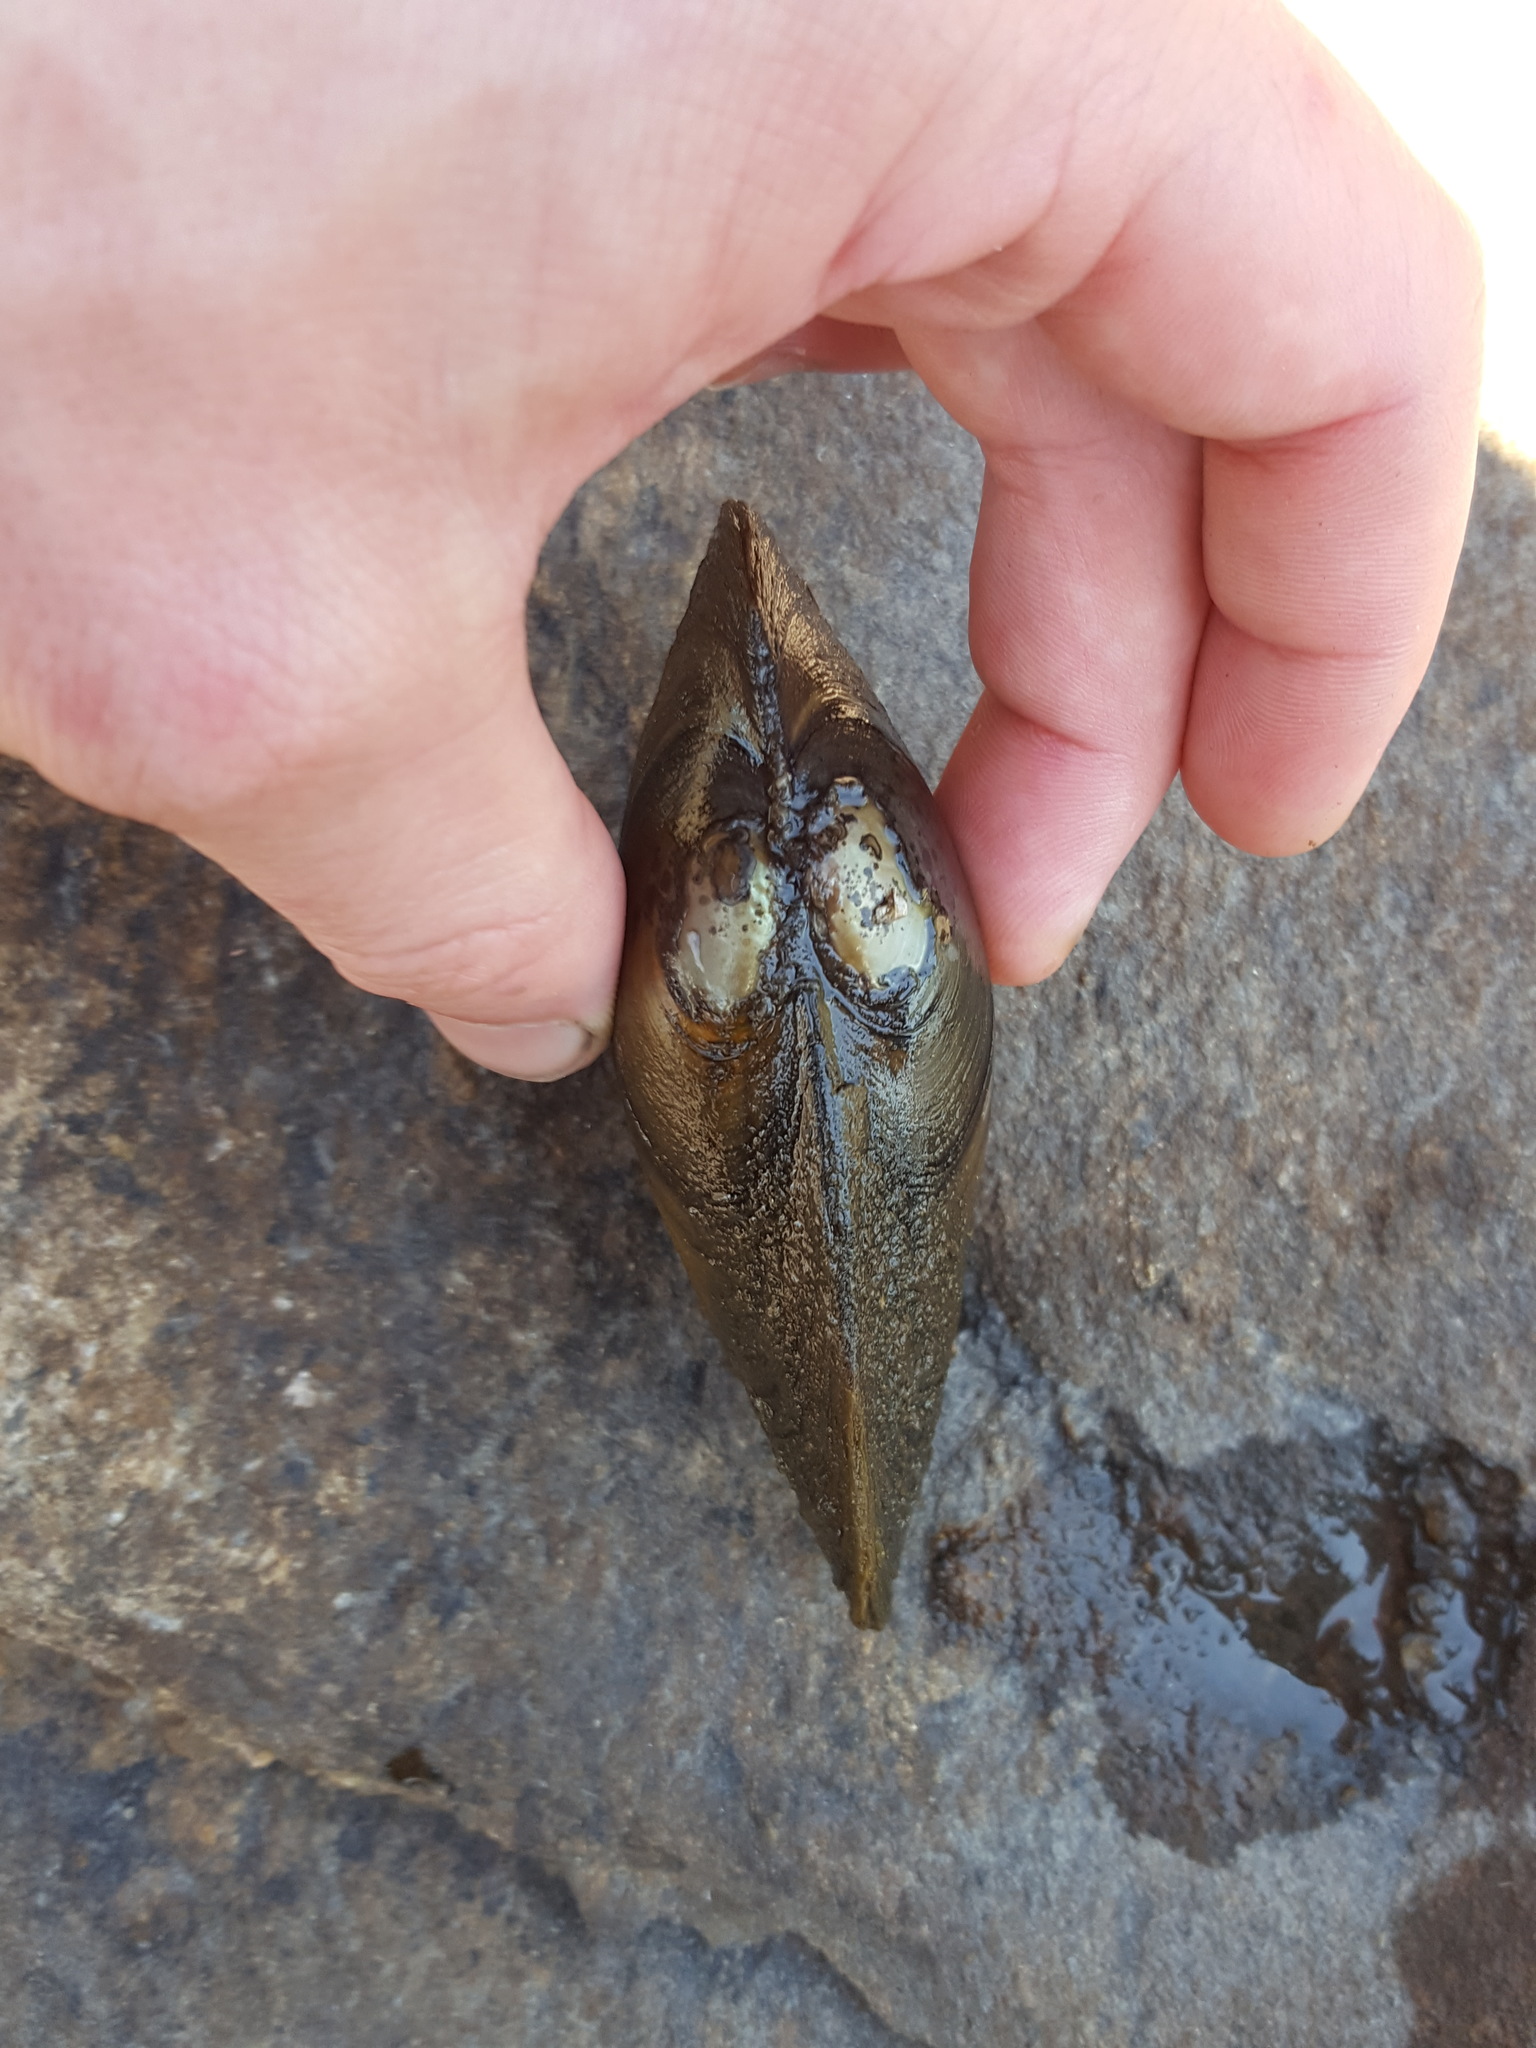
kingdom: Animalia
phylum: Mollusca
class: Bivalvia
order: Unionida
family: Unionidae
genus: Pyganodon
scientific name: Pyganodon grandis
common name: Giant floater
